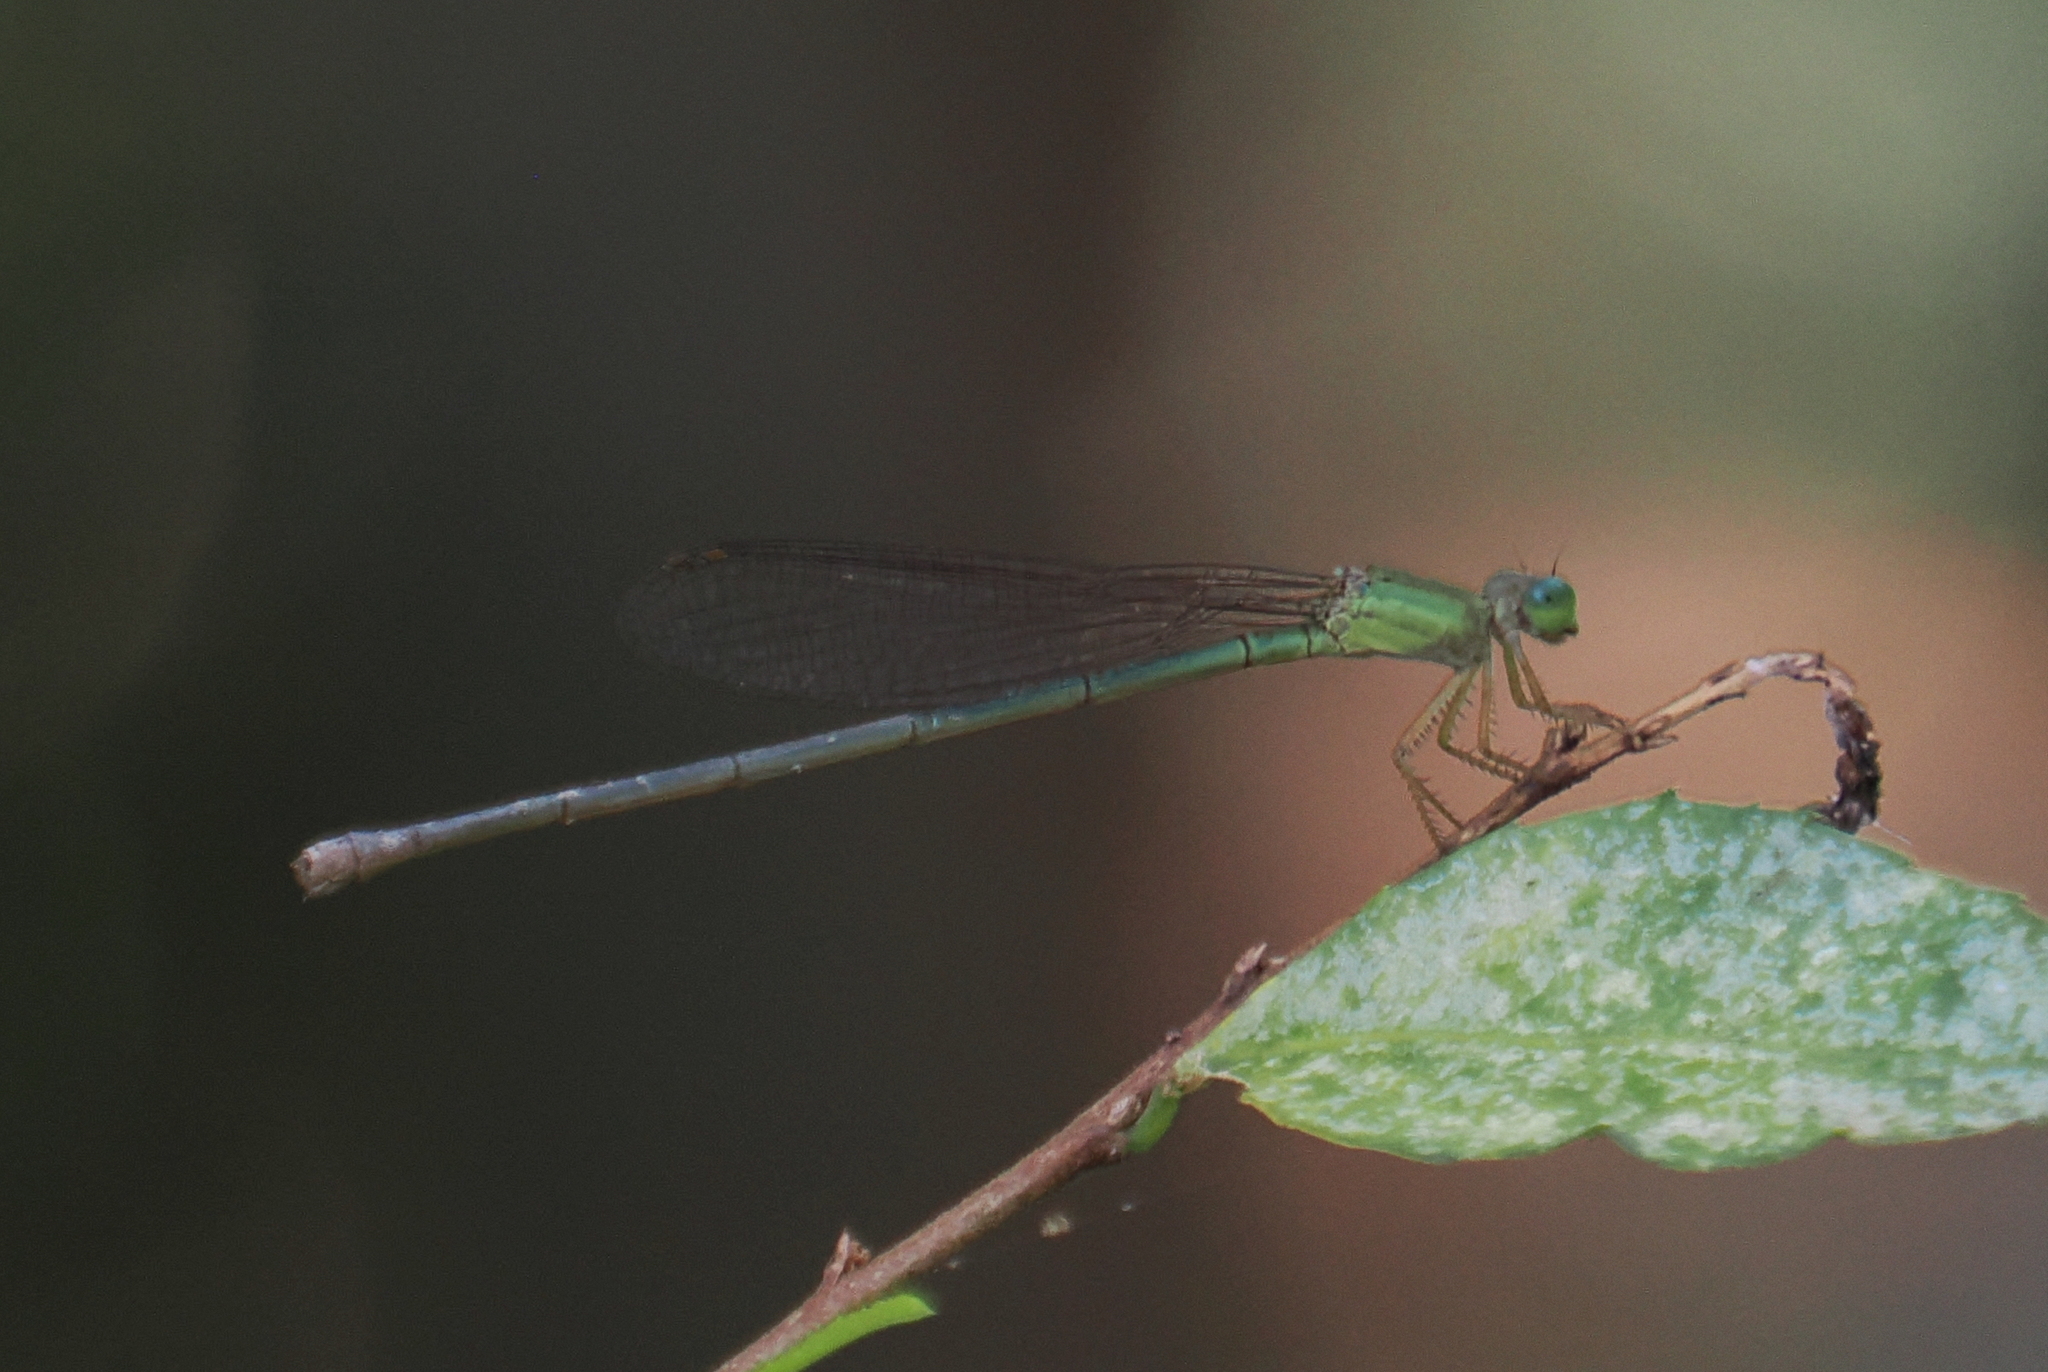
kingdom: Animalia
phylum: Arthropoda
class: Insecta
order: Odonata
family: Coenagrionidae
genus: Ceriagrion
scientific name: Ceriagrion azureum
